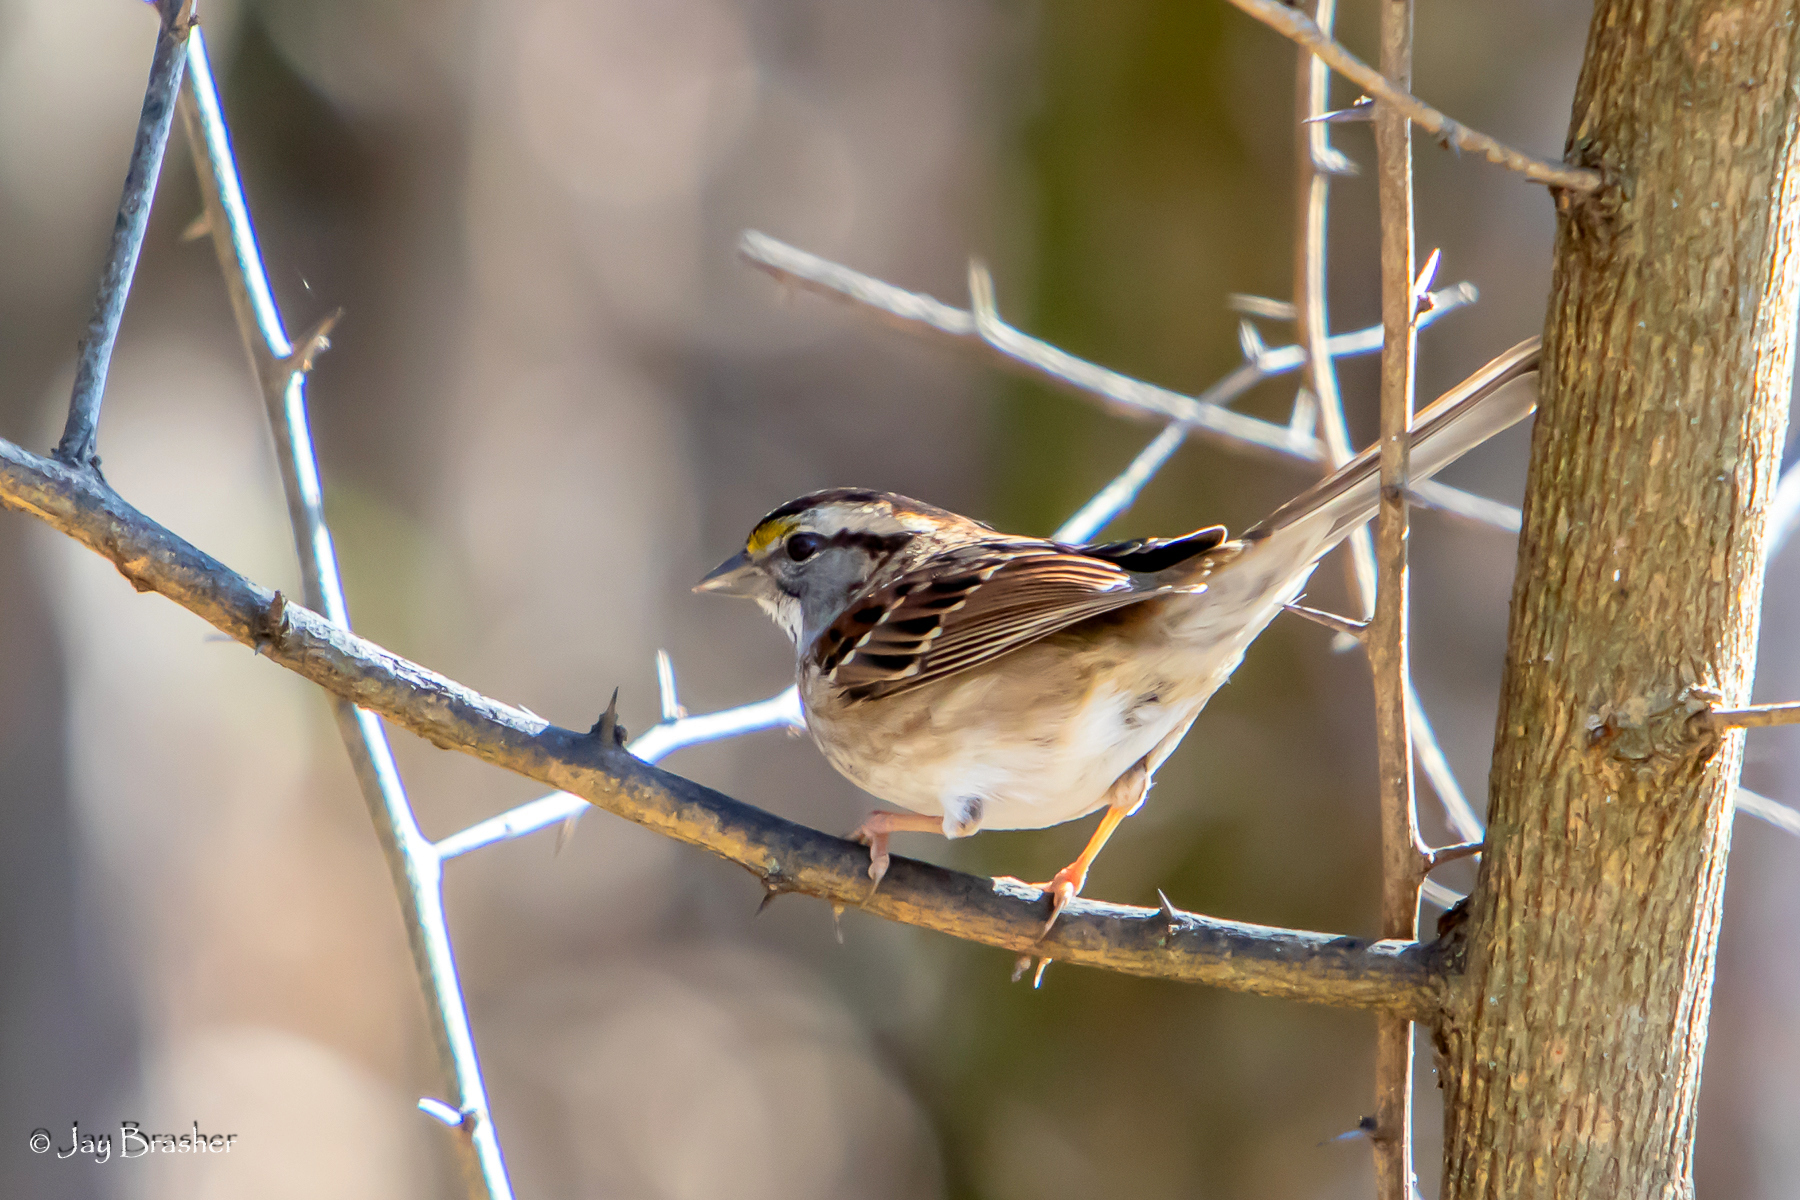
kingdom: Animalia
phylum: Chordata
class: Aves
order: Passeriformes
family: Passerellidae
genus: Zonotrichia
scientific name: Zonotrichia albicollis
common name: White-throated sparrow
